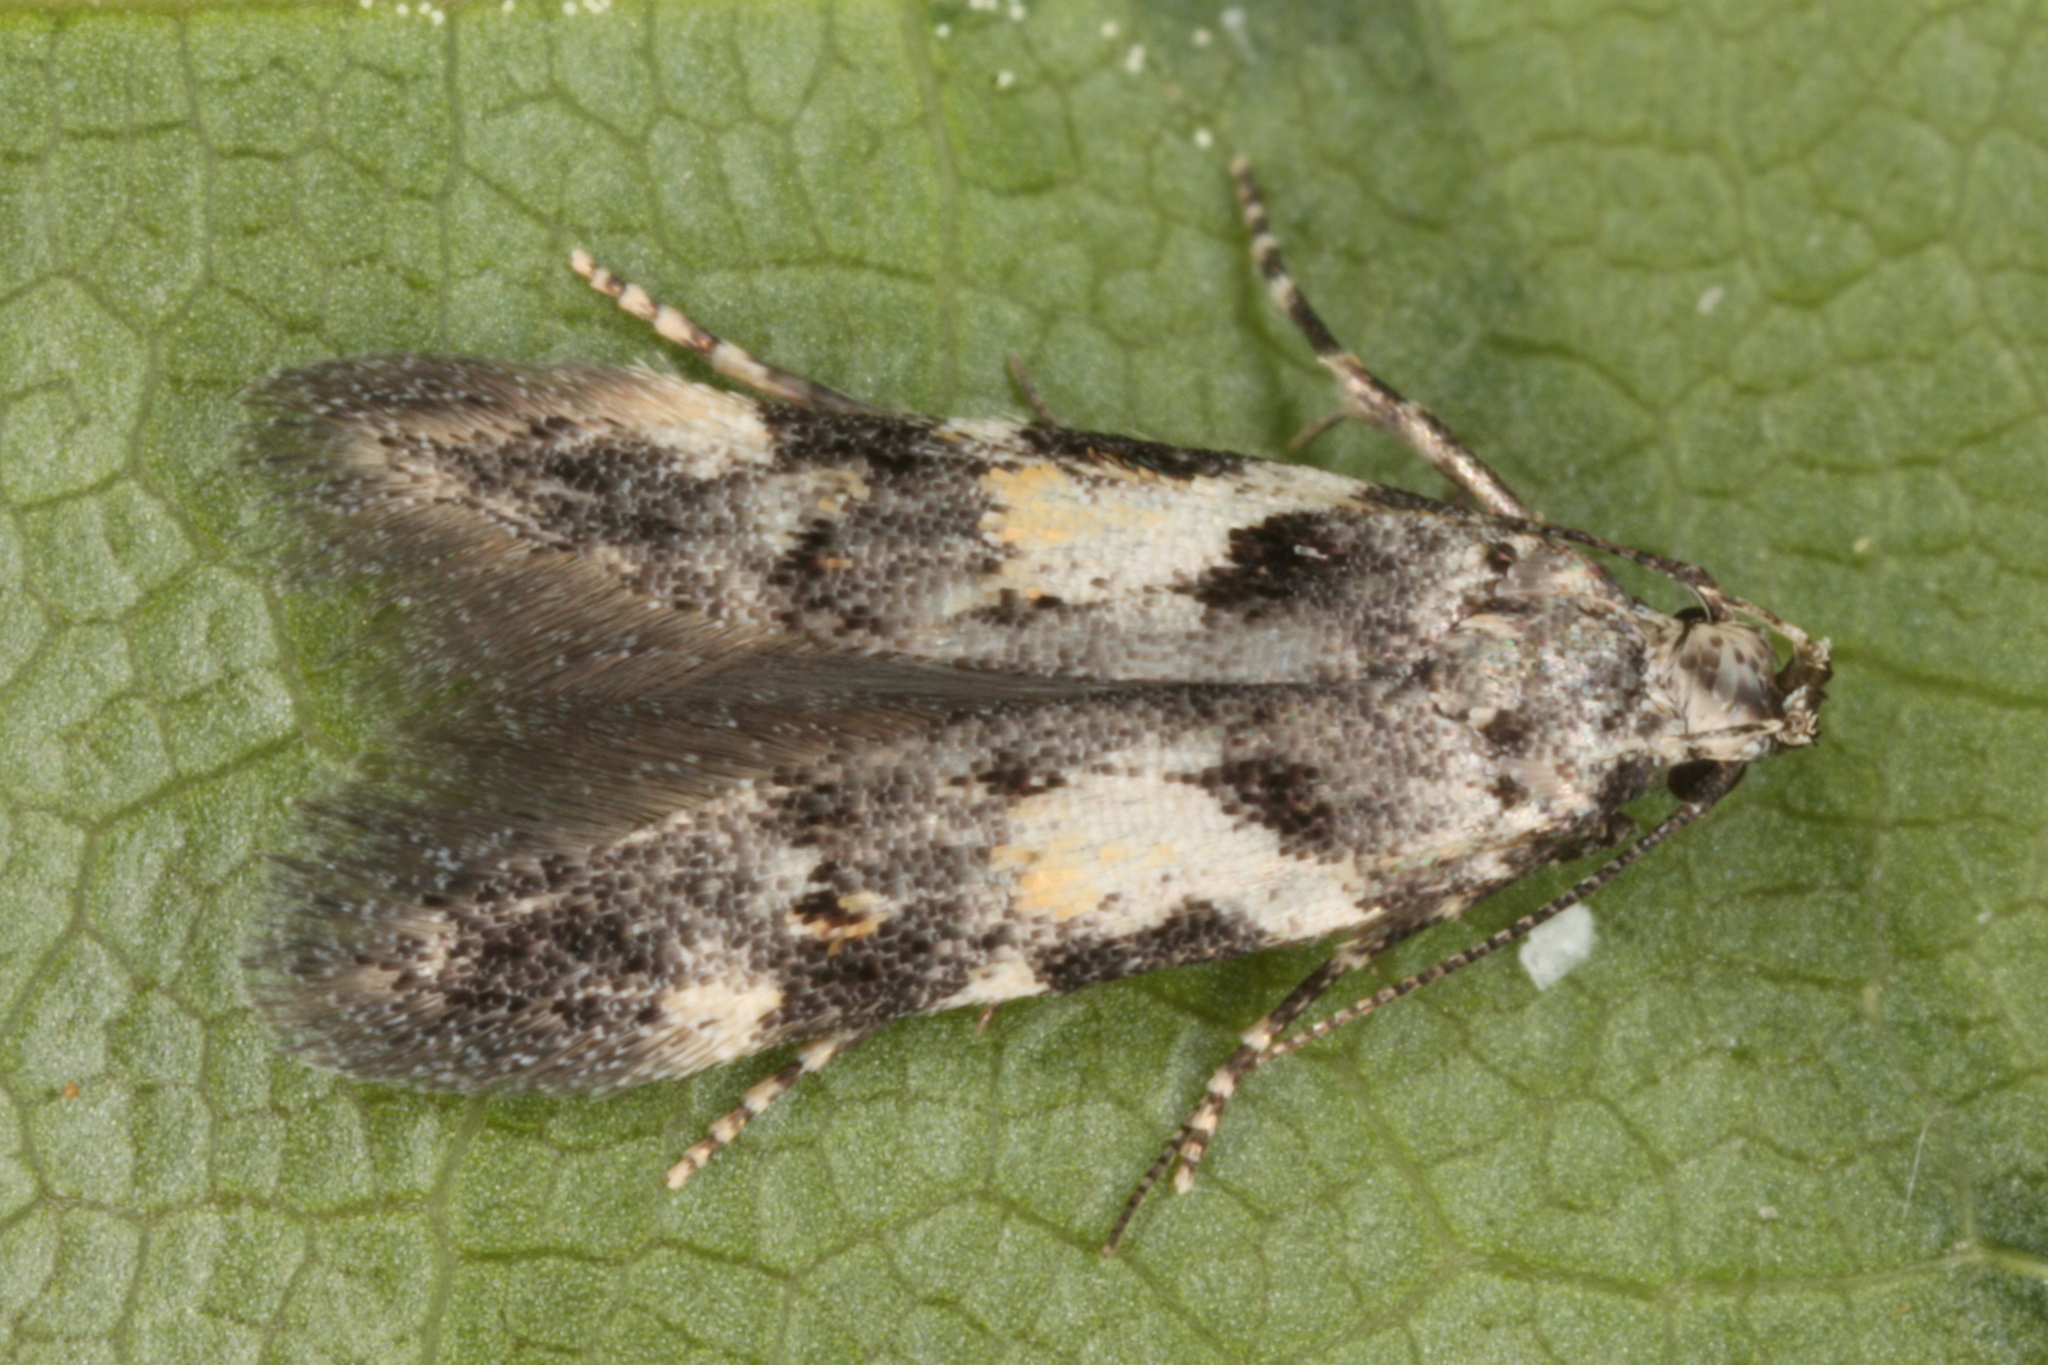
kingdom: Animalia
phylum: Arthropoda
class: Insecta
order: Lepidoptera
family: Gelechiidae
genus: Teleiodes
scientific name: Teleiodes luculella
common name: Crescent groundling
